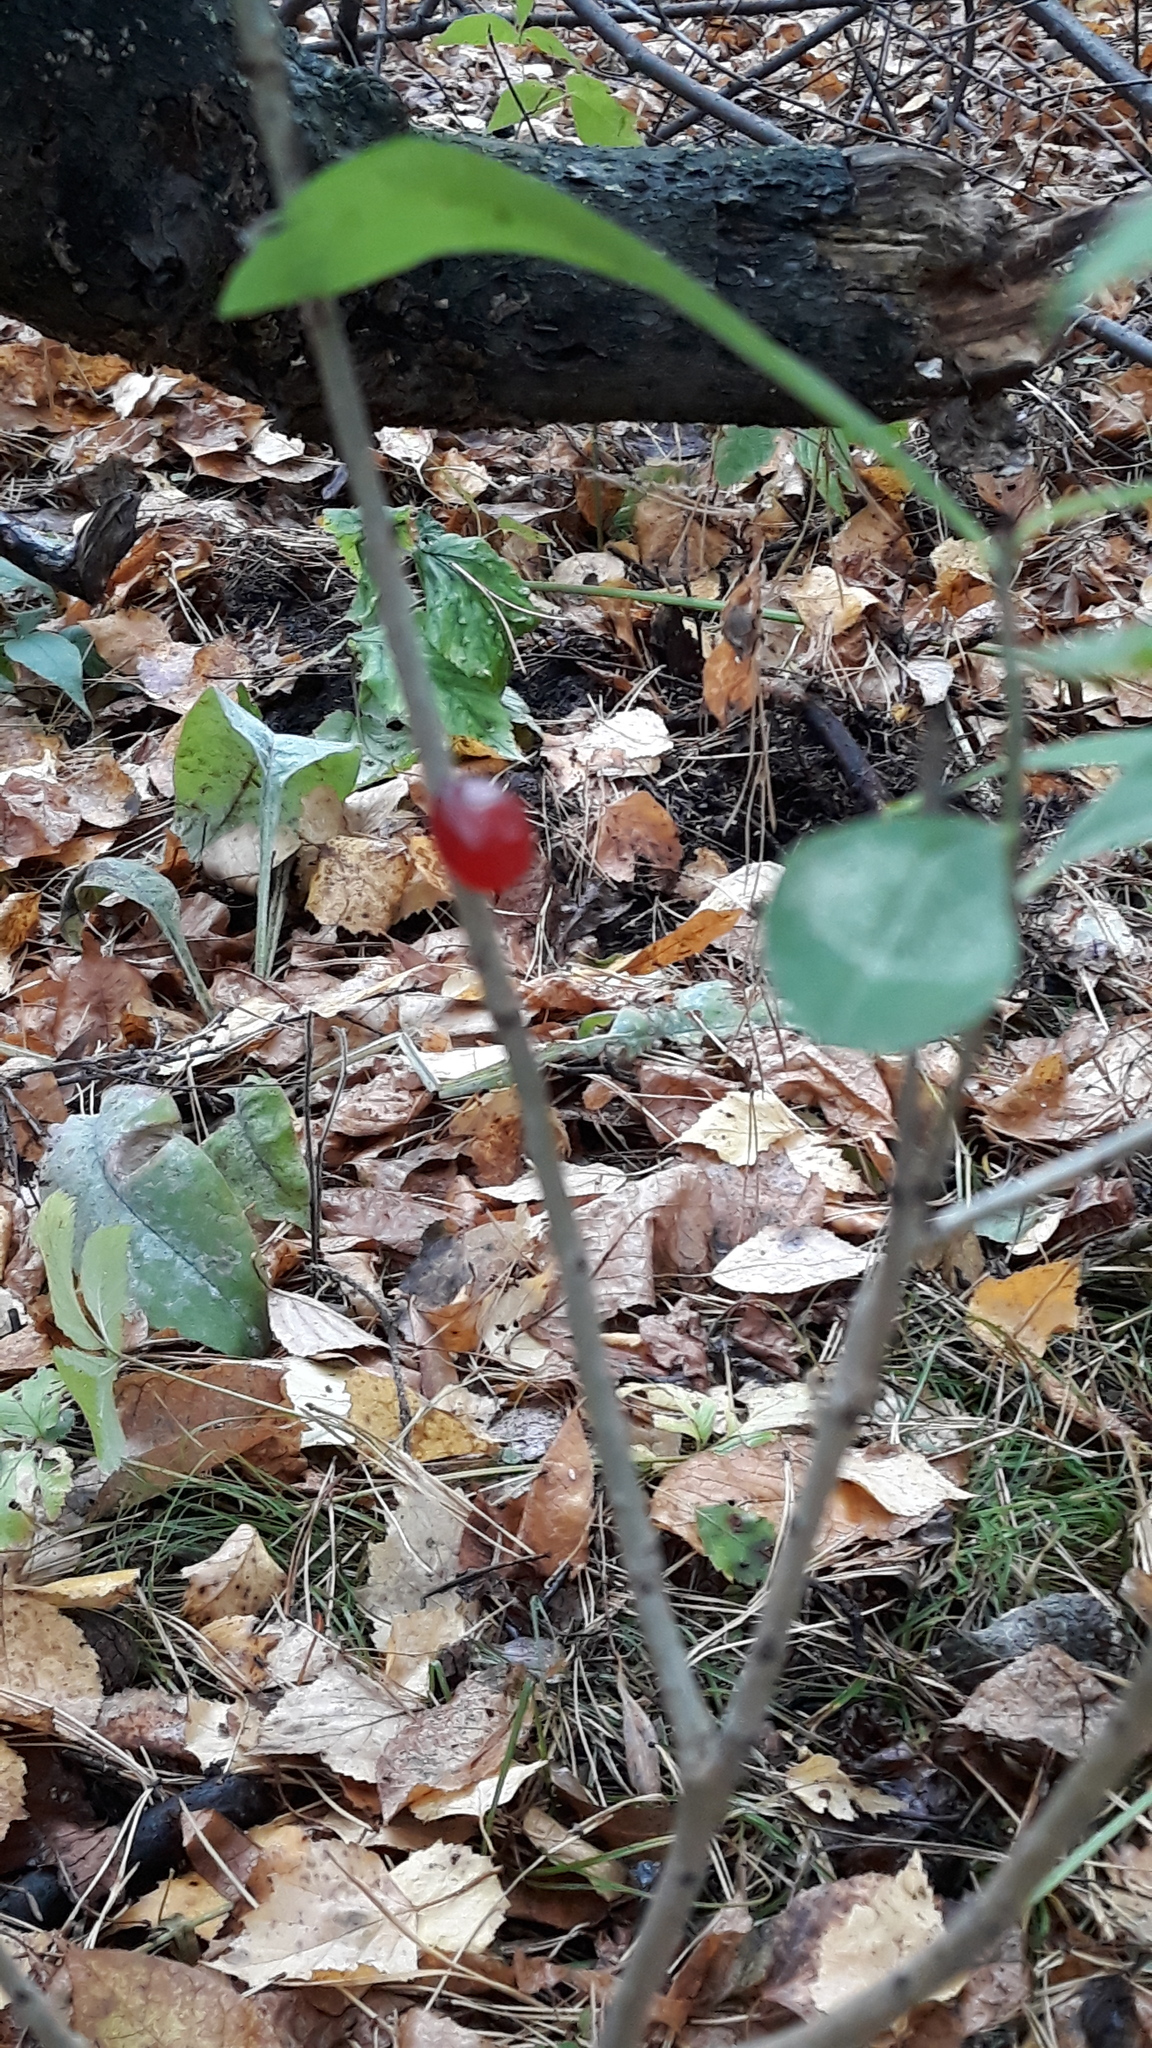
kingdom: Plantae
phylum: Tracheophyta
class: Magnoliopsida
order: Malvales
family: Thymelaeaceae
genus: Daphne
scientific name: Daphne mezereum
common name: Mezereon
